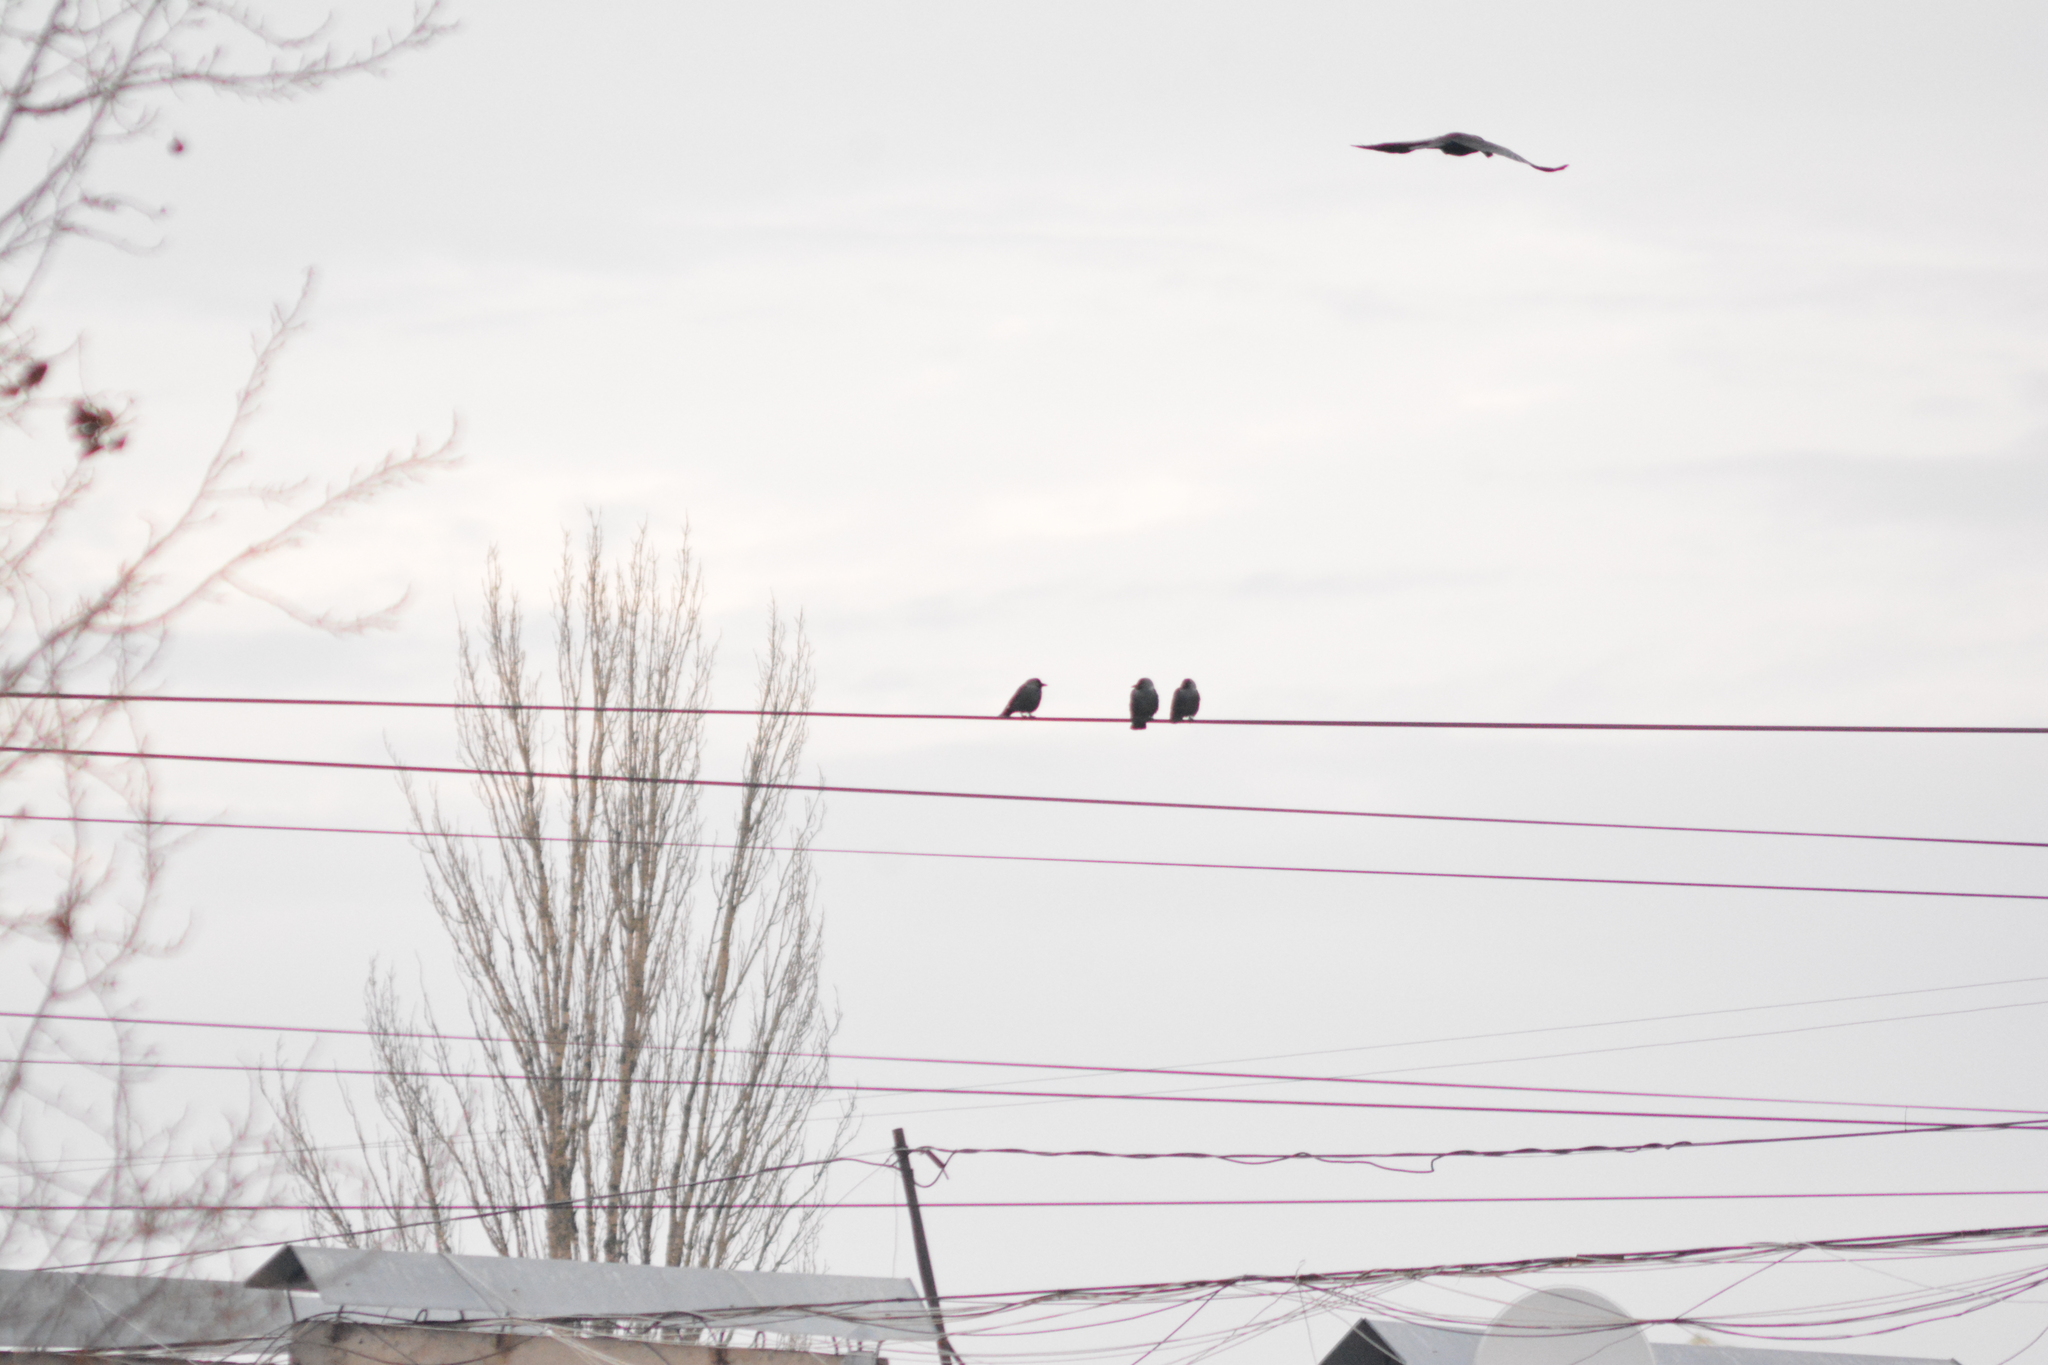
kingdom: Animalia
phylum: Chordata
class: Aves
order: Passeriformes
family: Corvidae
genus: Coloeus
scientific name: Coloeus monedula
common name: Western jackdaw
